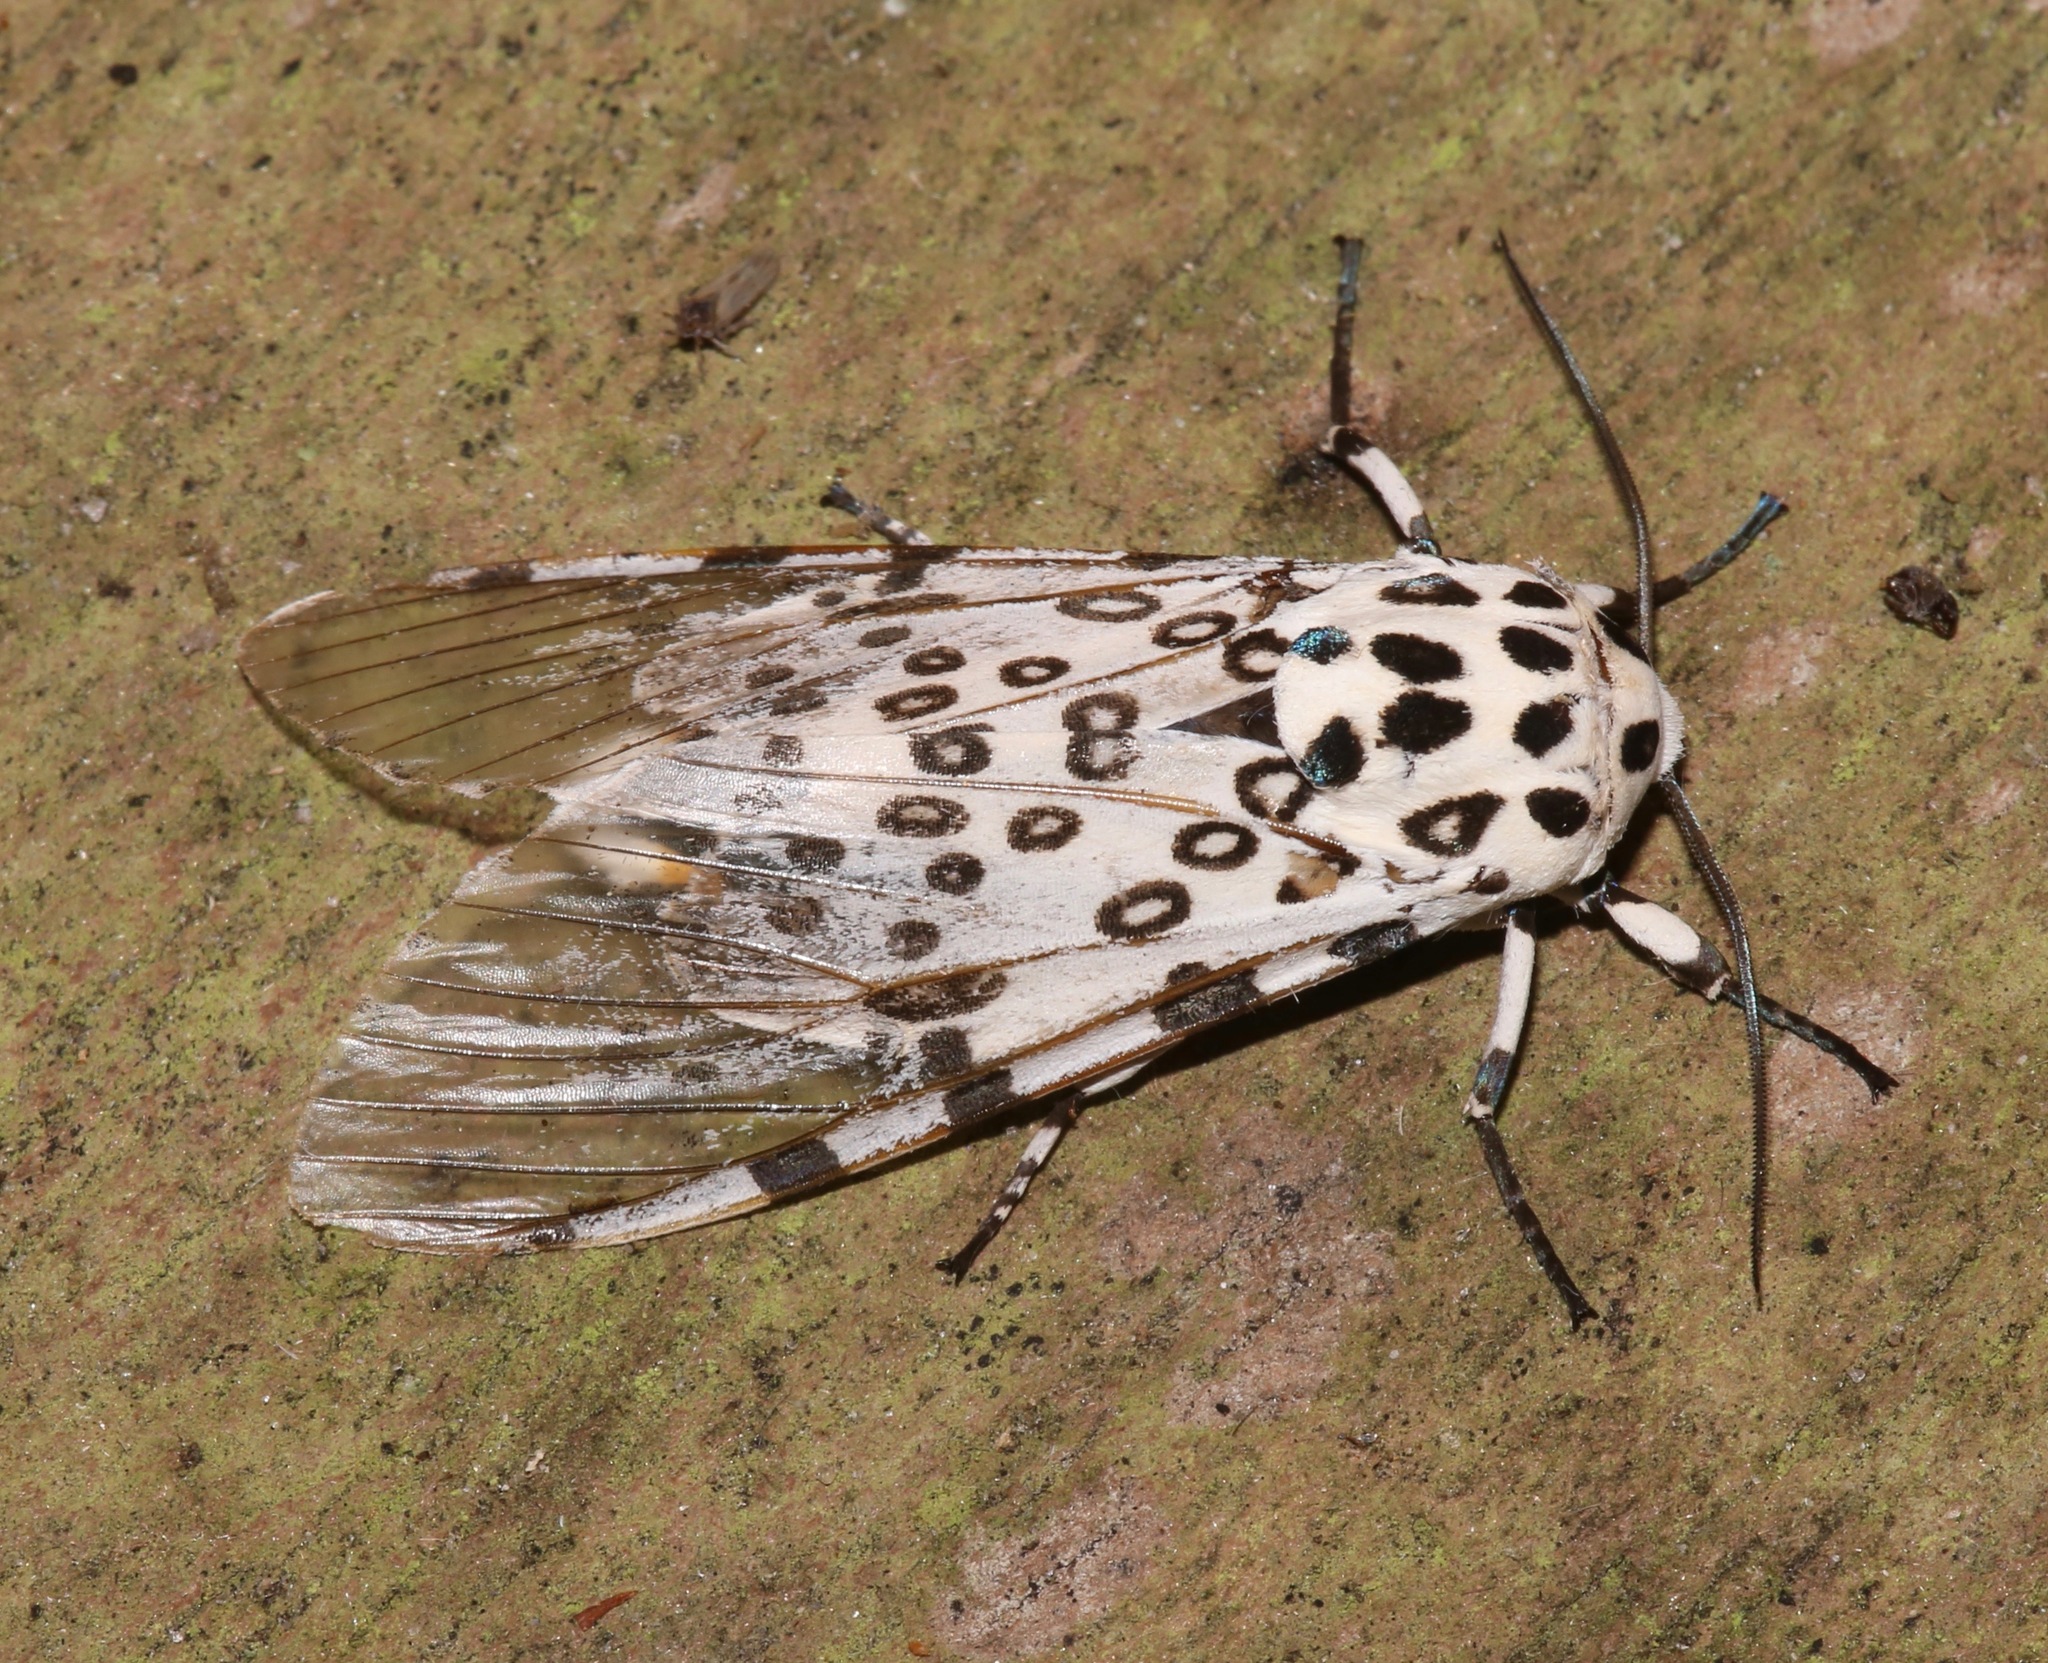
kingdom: Animalia
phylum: Arthropoda
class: Insecta
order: Lepidoptera
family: Erebidae
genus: Hypercompe
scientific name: Hypercompe scribonia
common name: Giant leopard moth
